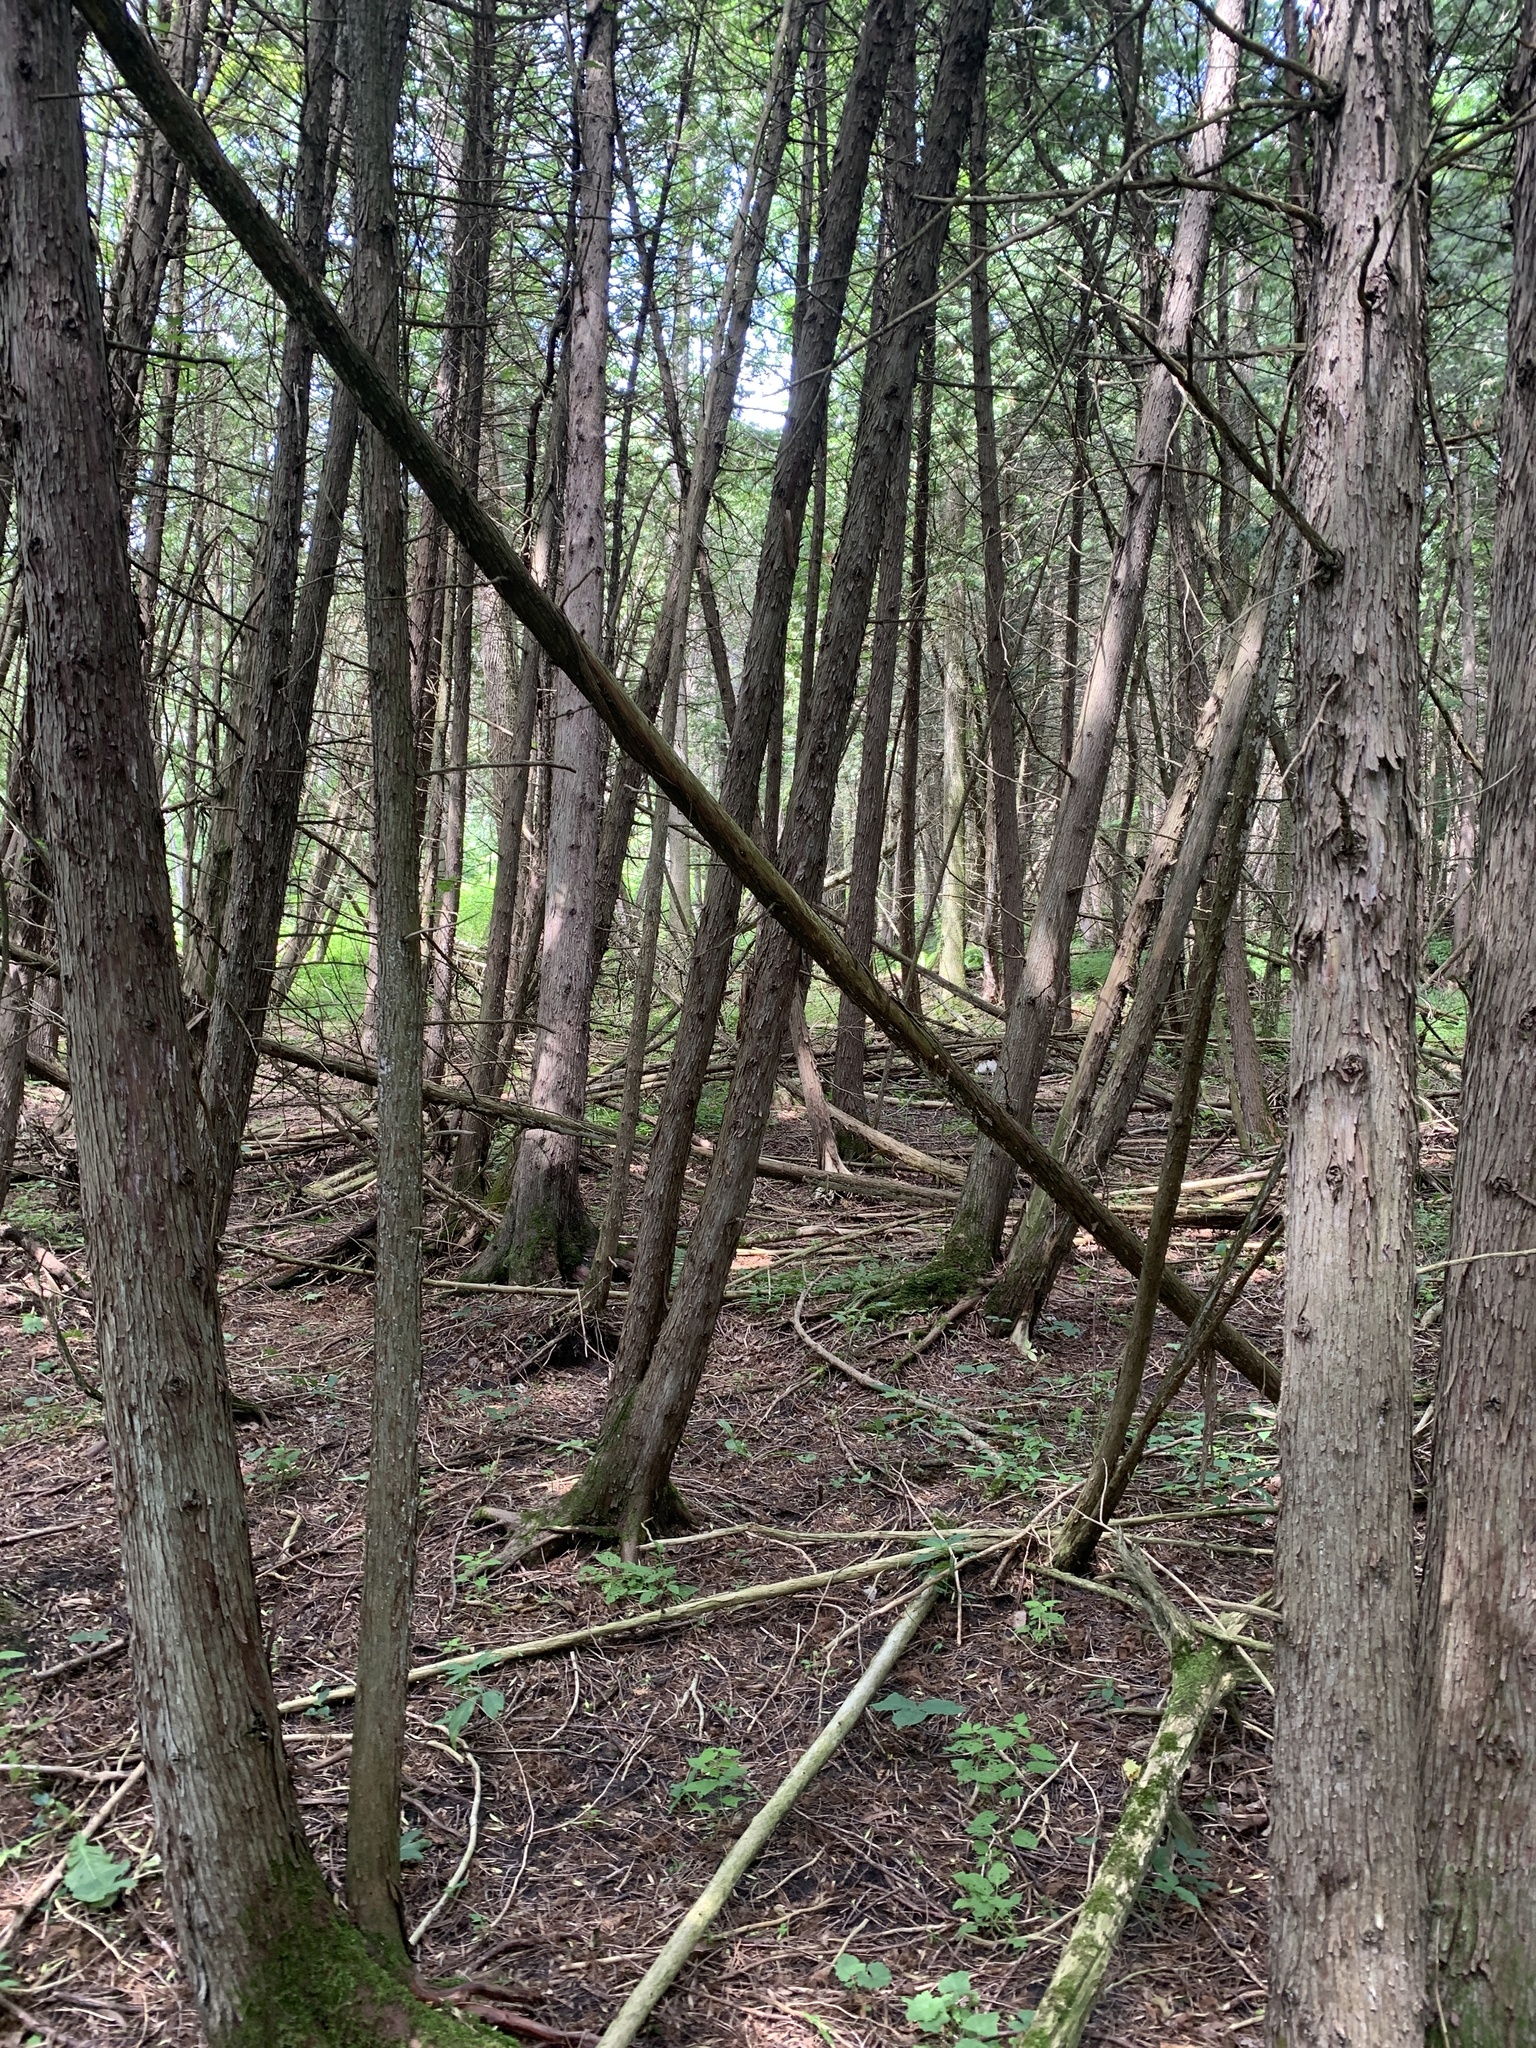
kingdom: Plantae
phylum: Tracheophyta
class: Pinopsida
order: Pinales
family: Cupressaceae
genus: Thuja
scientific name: Thuja occidentalis
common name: Northern white-cedar
